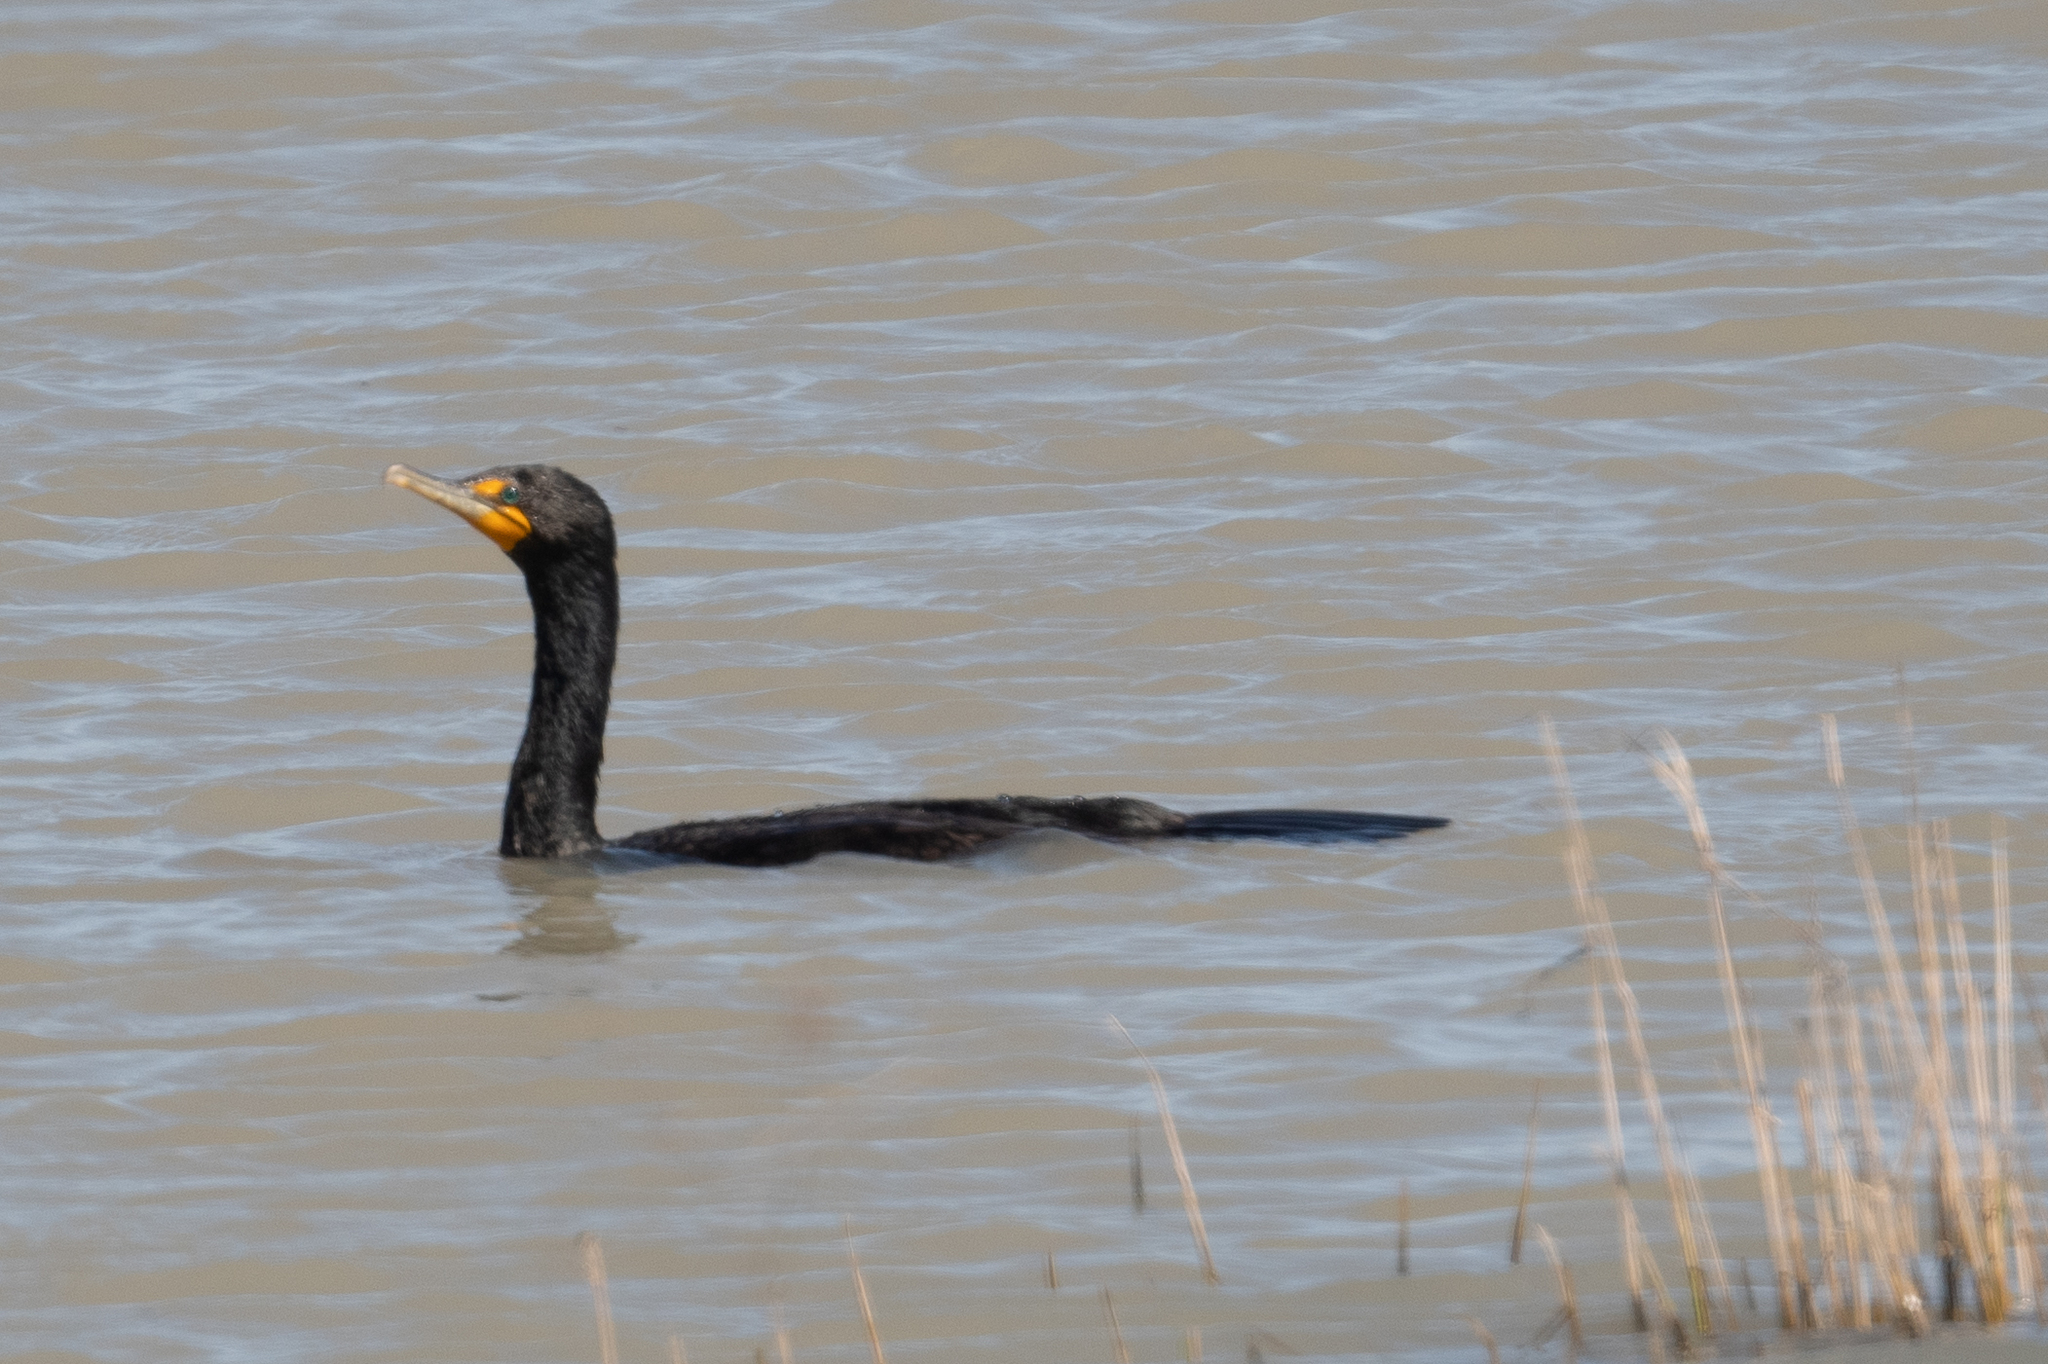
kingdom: Animalia
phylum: Chordata
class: Aves
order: Suliformes
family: Phalacrocoracidae
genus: Phalacrocorax
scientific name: Phalacrocorax auritus
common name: Double-crested cormorant
